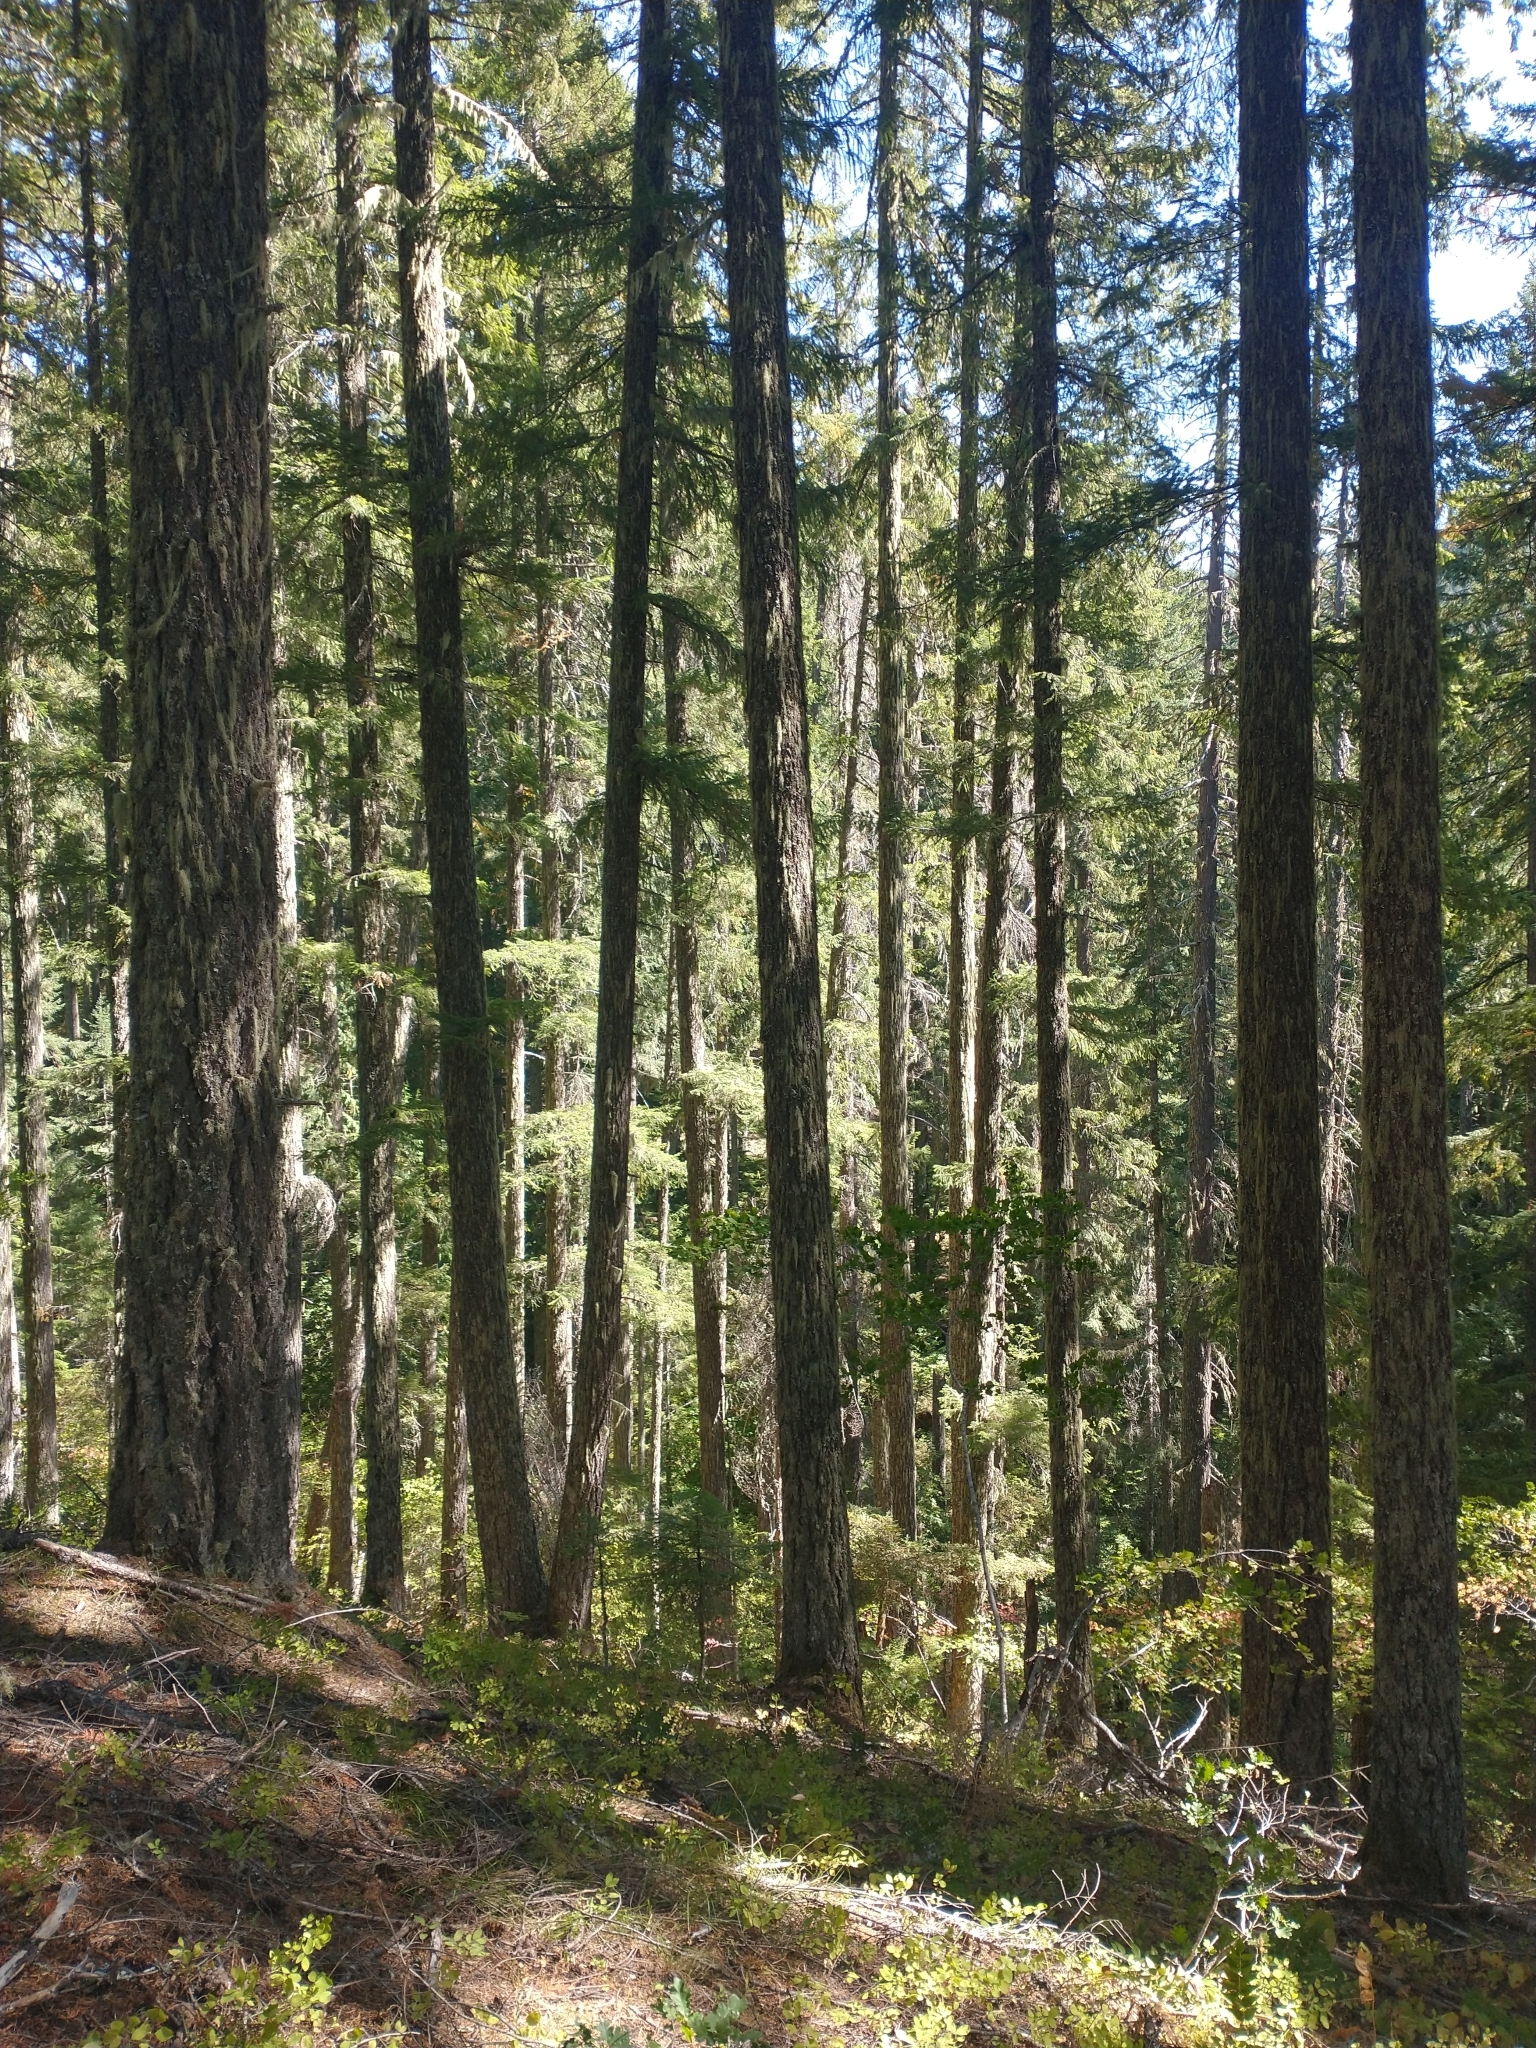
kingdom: Plantae
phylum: Tracheophyta
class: Pinopsida
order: Pinales
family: Pinaceae
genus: Pseudotsuga
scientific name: Pseudotsuga menziesii
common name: Douglas fir
